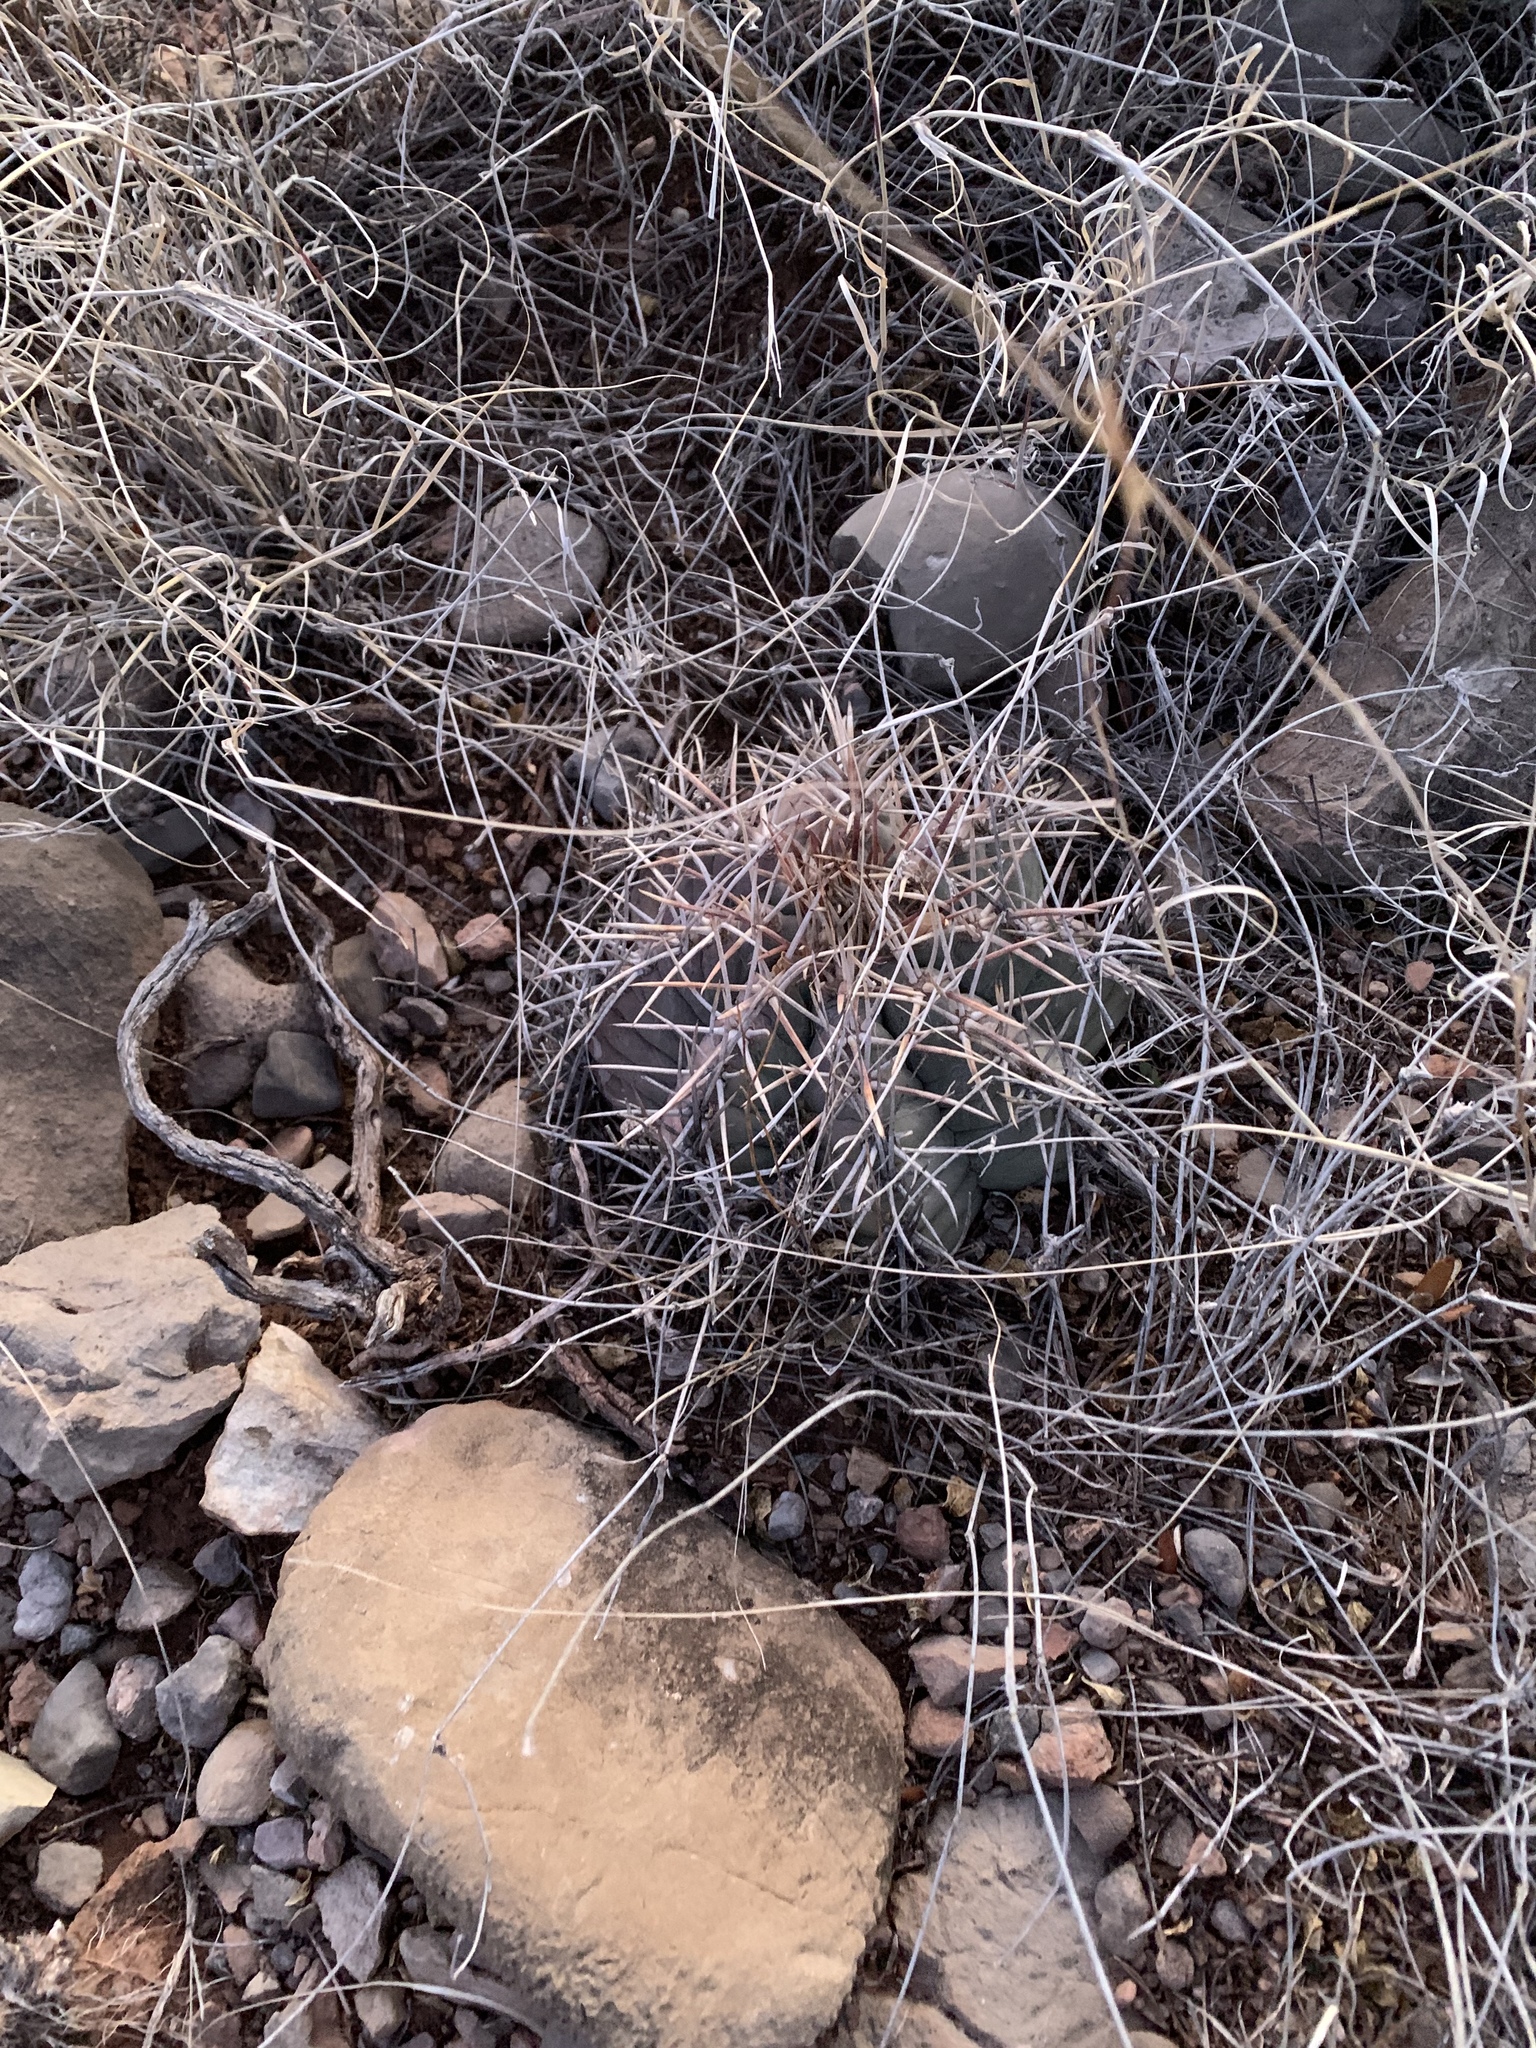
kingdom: Plantae
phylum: Tracheophyta
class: Magnoliopsida
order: Caryophyllales
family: Cactaceae
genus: Echinocactus
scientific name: Echinocactus horizonthalonius
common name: Devilshead
